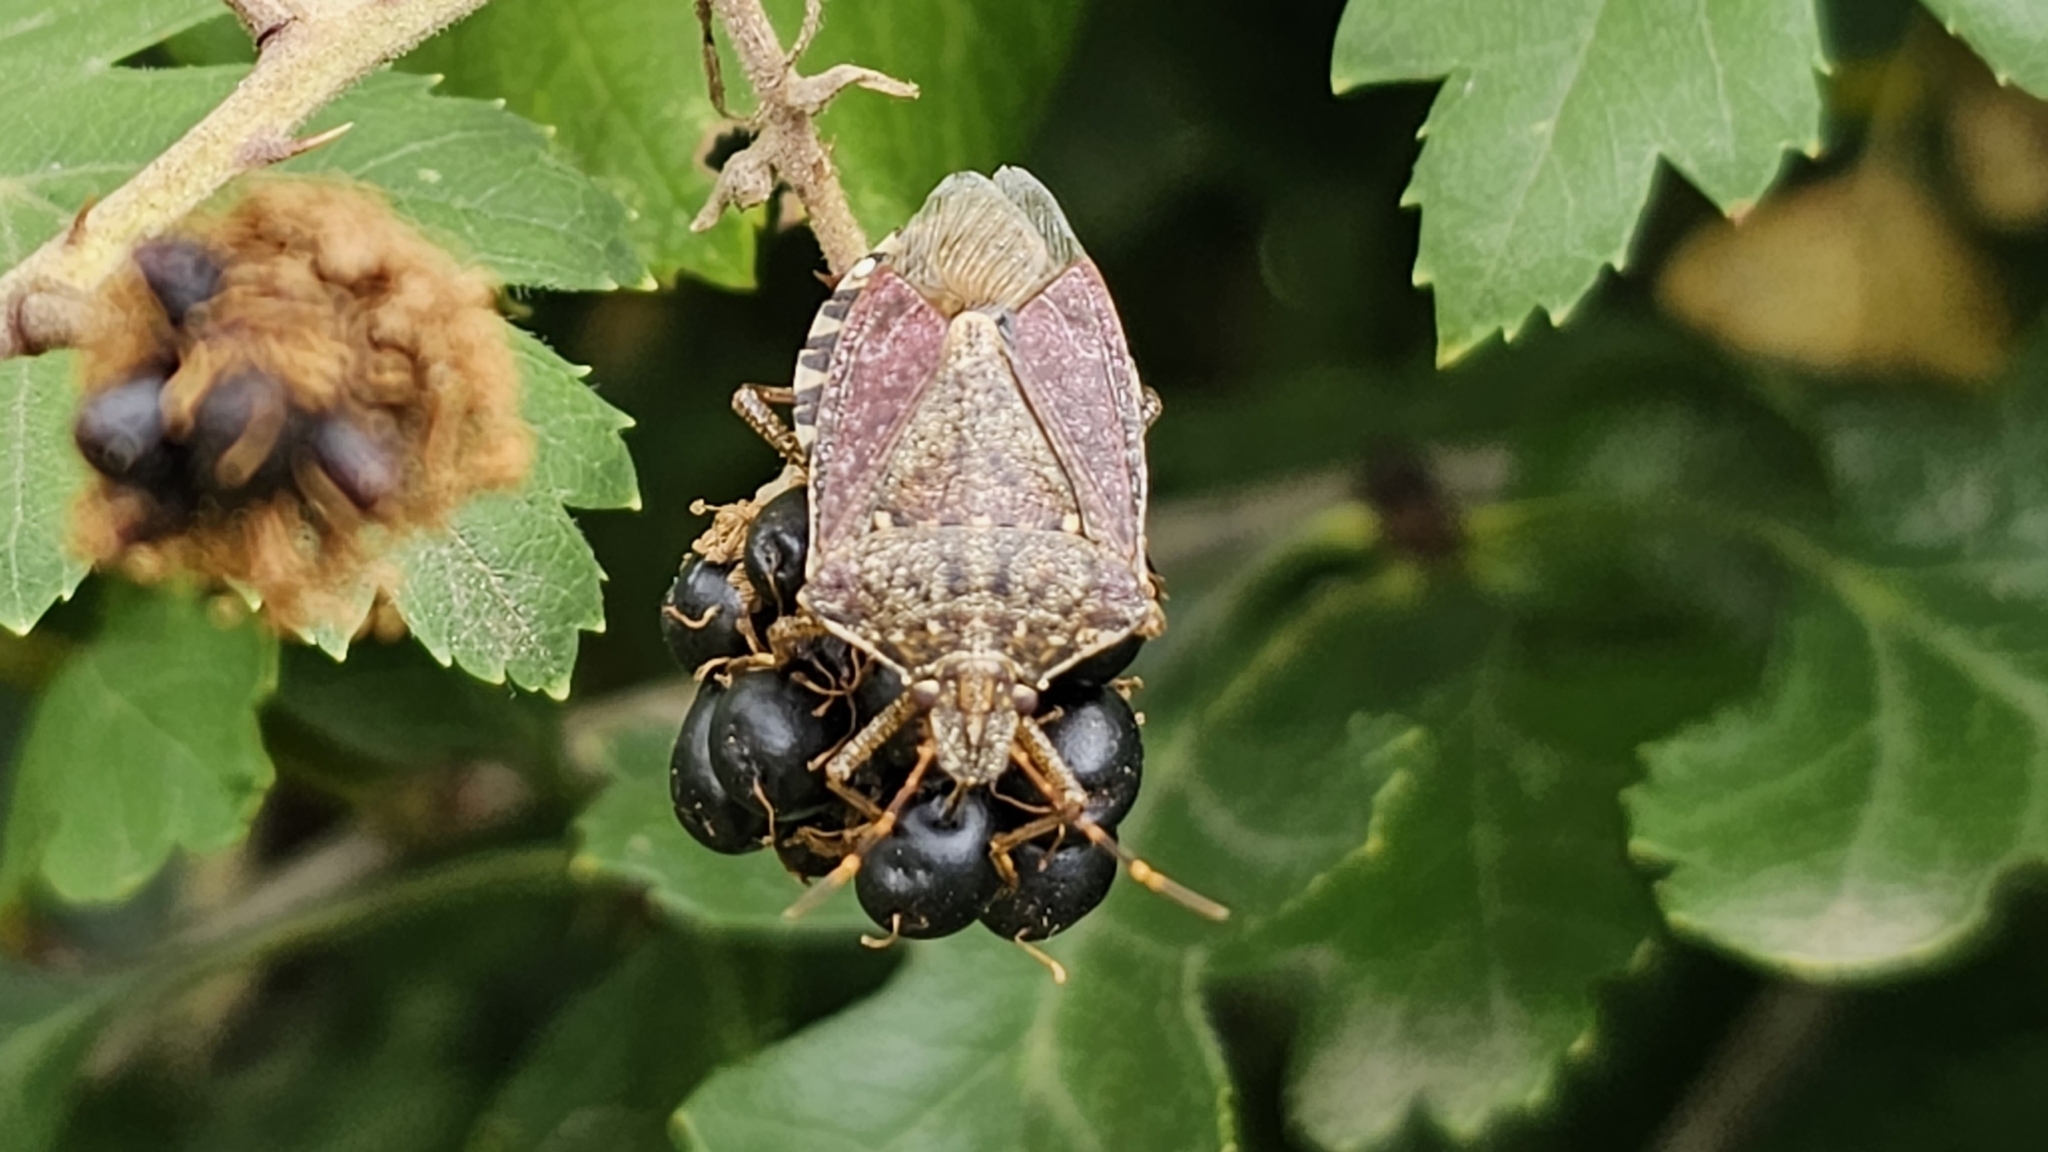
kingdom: Animalia
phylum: Arthropoda
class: Insecta
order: Hemiptera
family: Pentatomidae
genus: Halyomorpha
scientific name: Halyomorpha halys
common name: Brown marmorated stink bug
